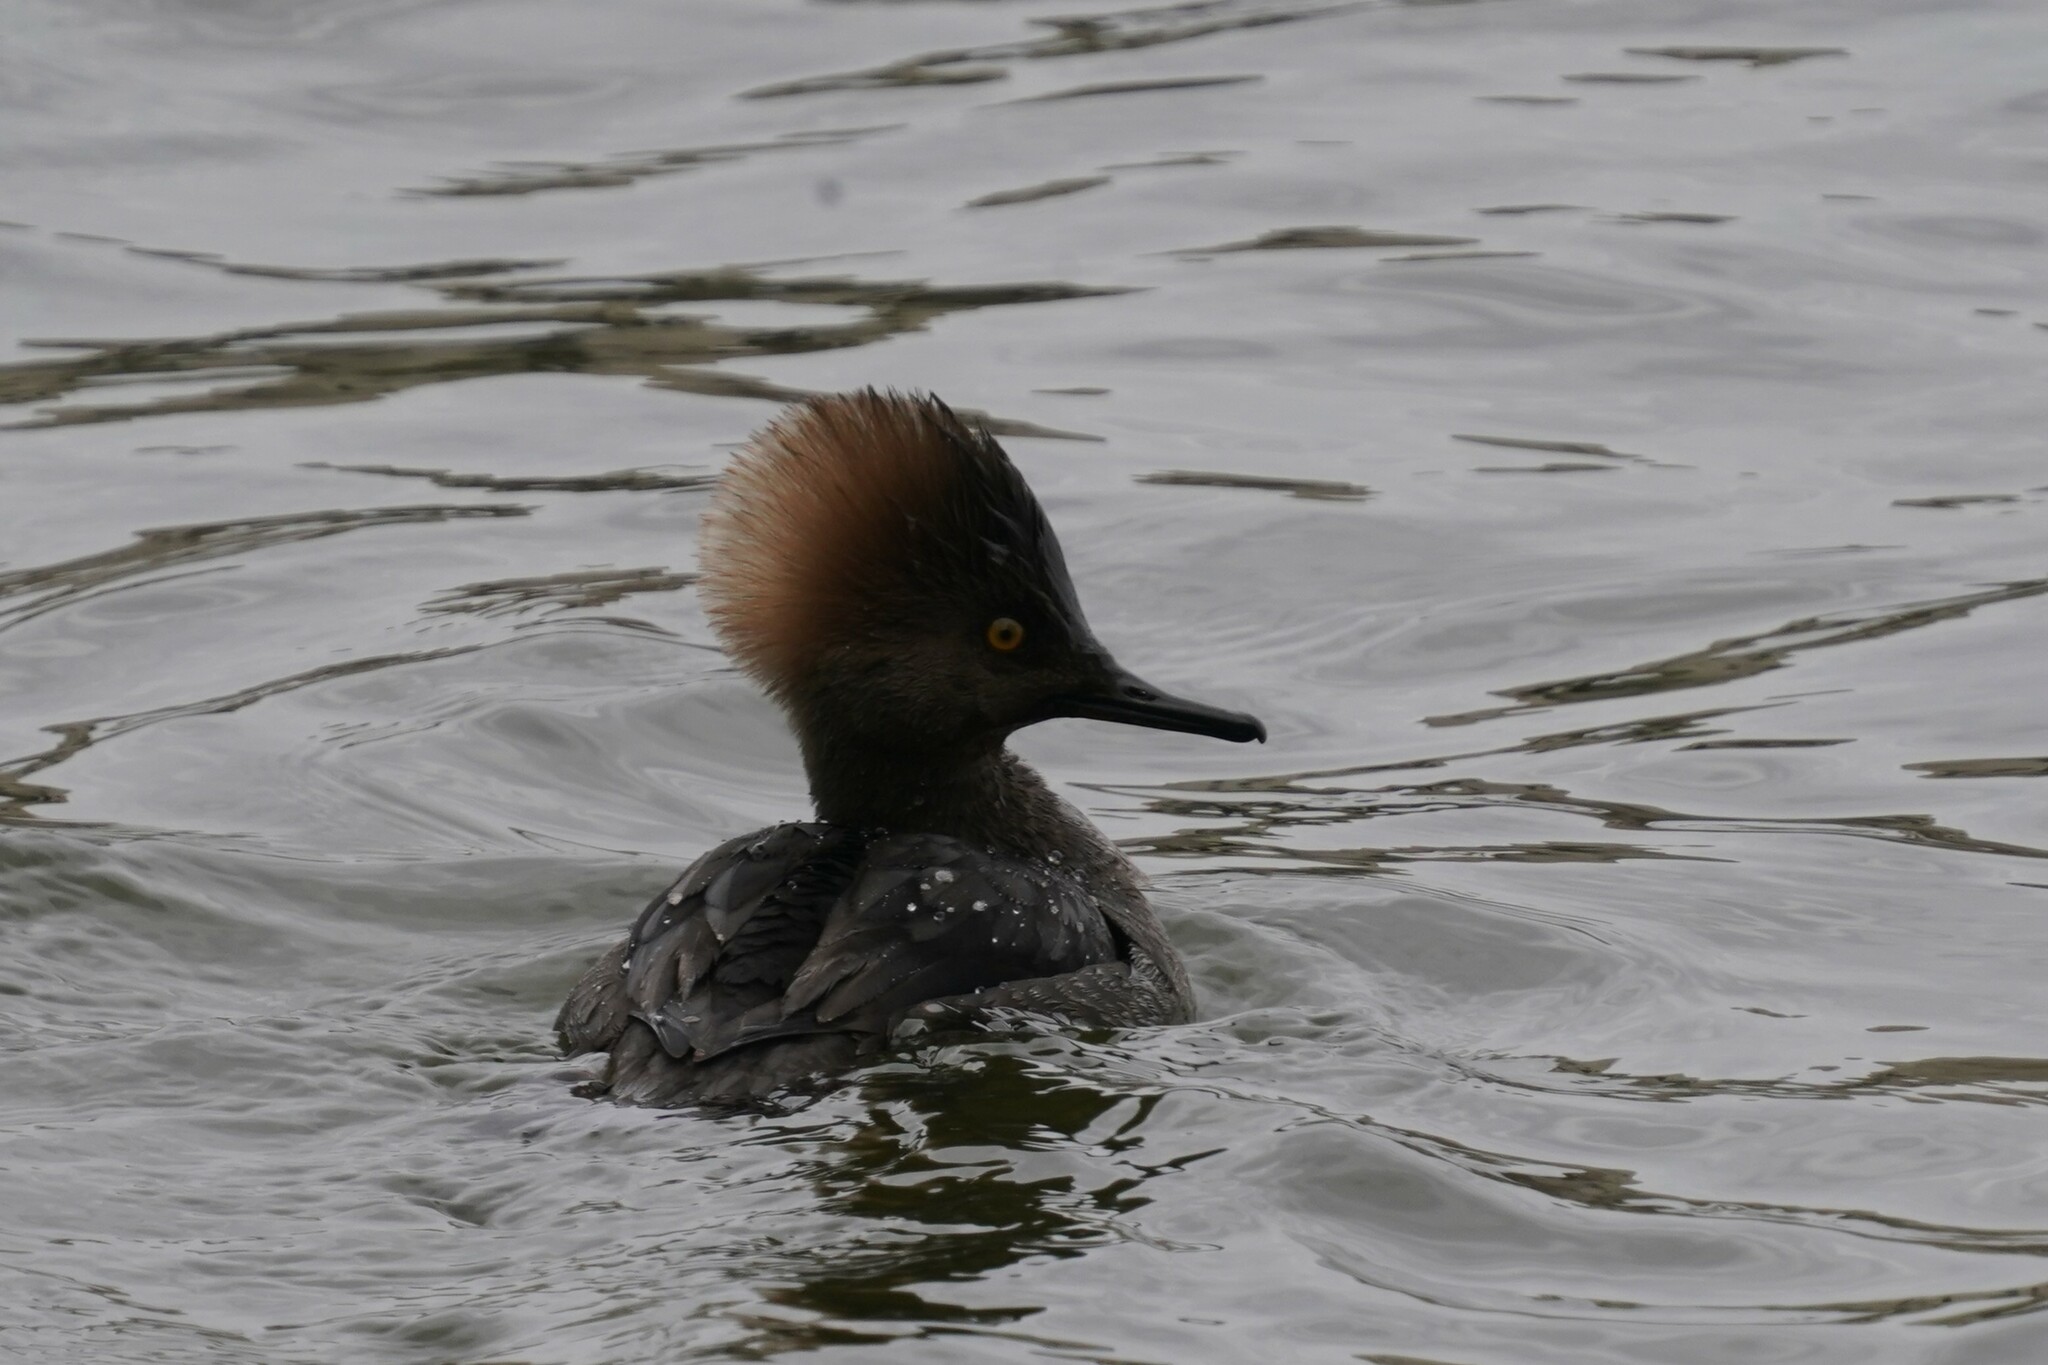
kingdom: Animalia
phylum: Chordata
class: Aves
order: Anseriformes
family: Anatidae
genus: Lophodytes
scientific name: Lophodytes cucullatus
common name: Hooded merganser
